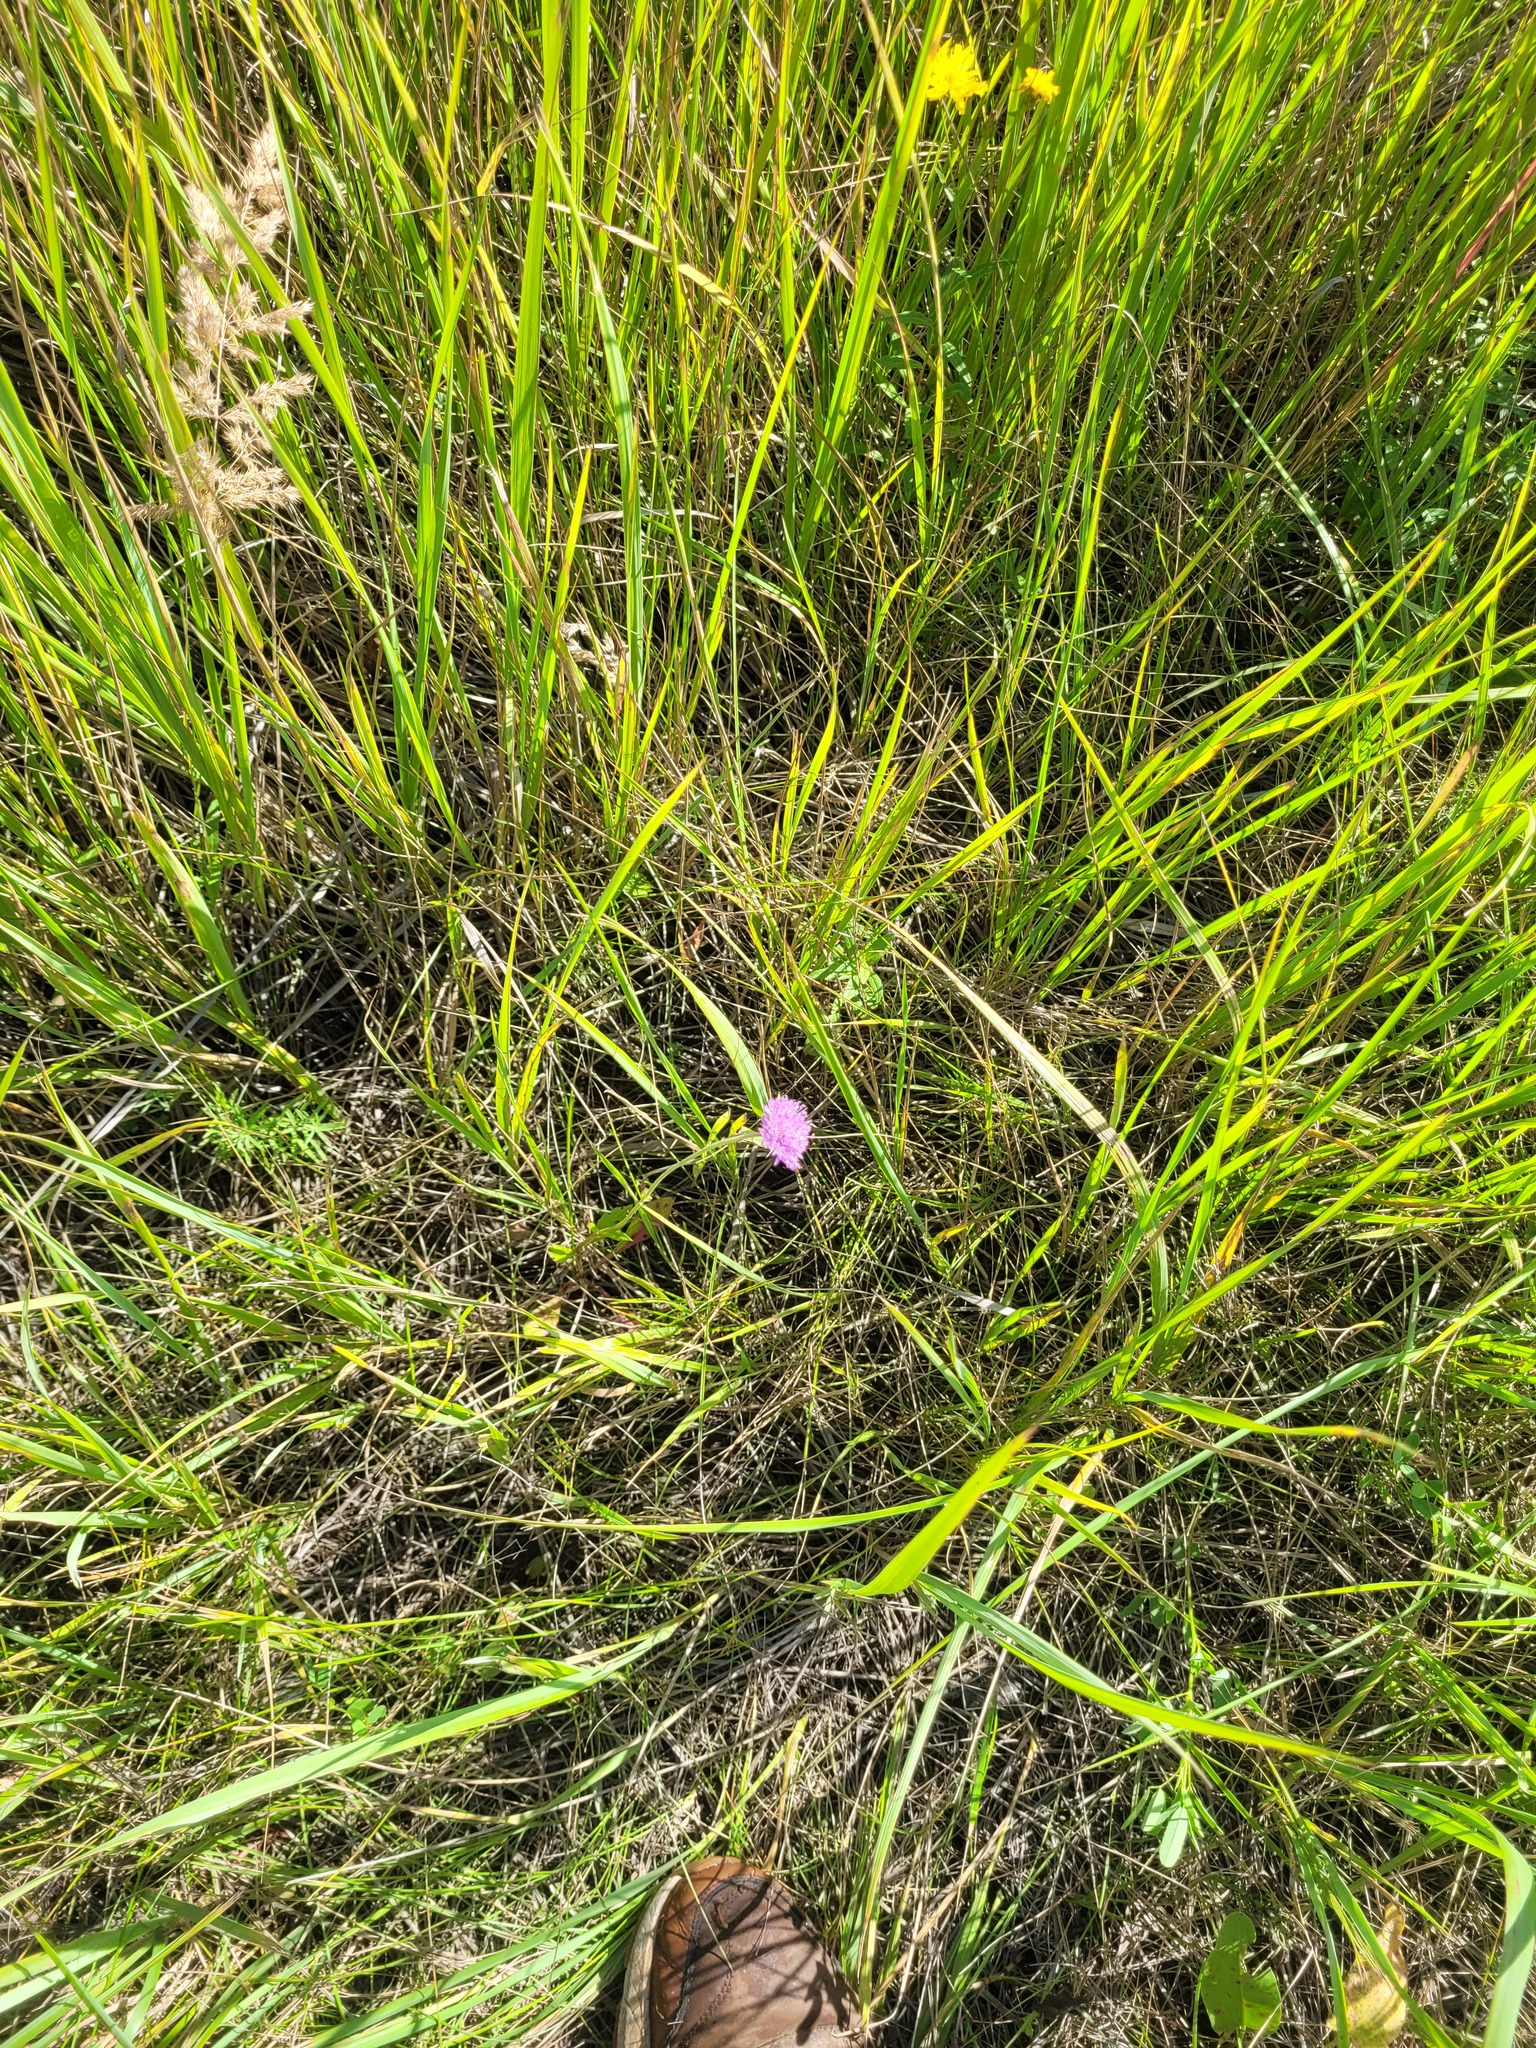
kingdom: Plantae
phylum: Tracheophyta
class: Magnoliopsida
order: Dipsacales
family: Caprifoliaceae
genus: Knautia
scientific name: Knautia arvensis
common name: Field scabiosa
